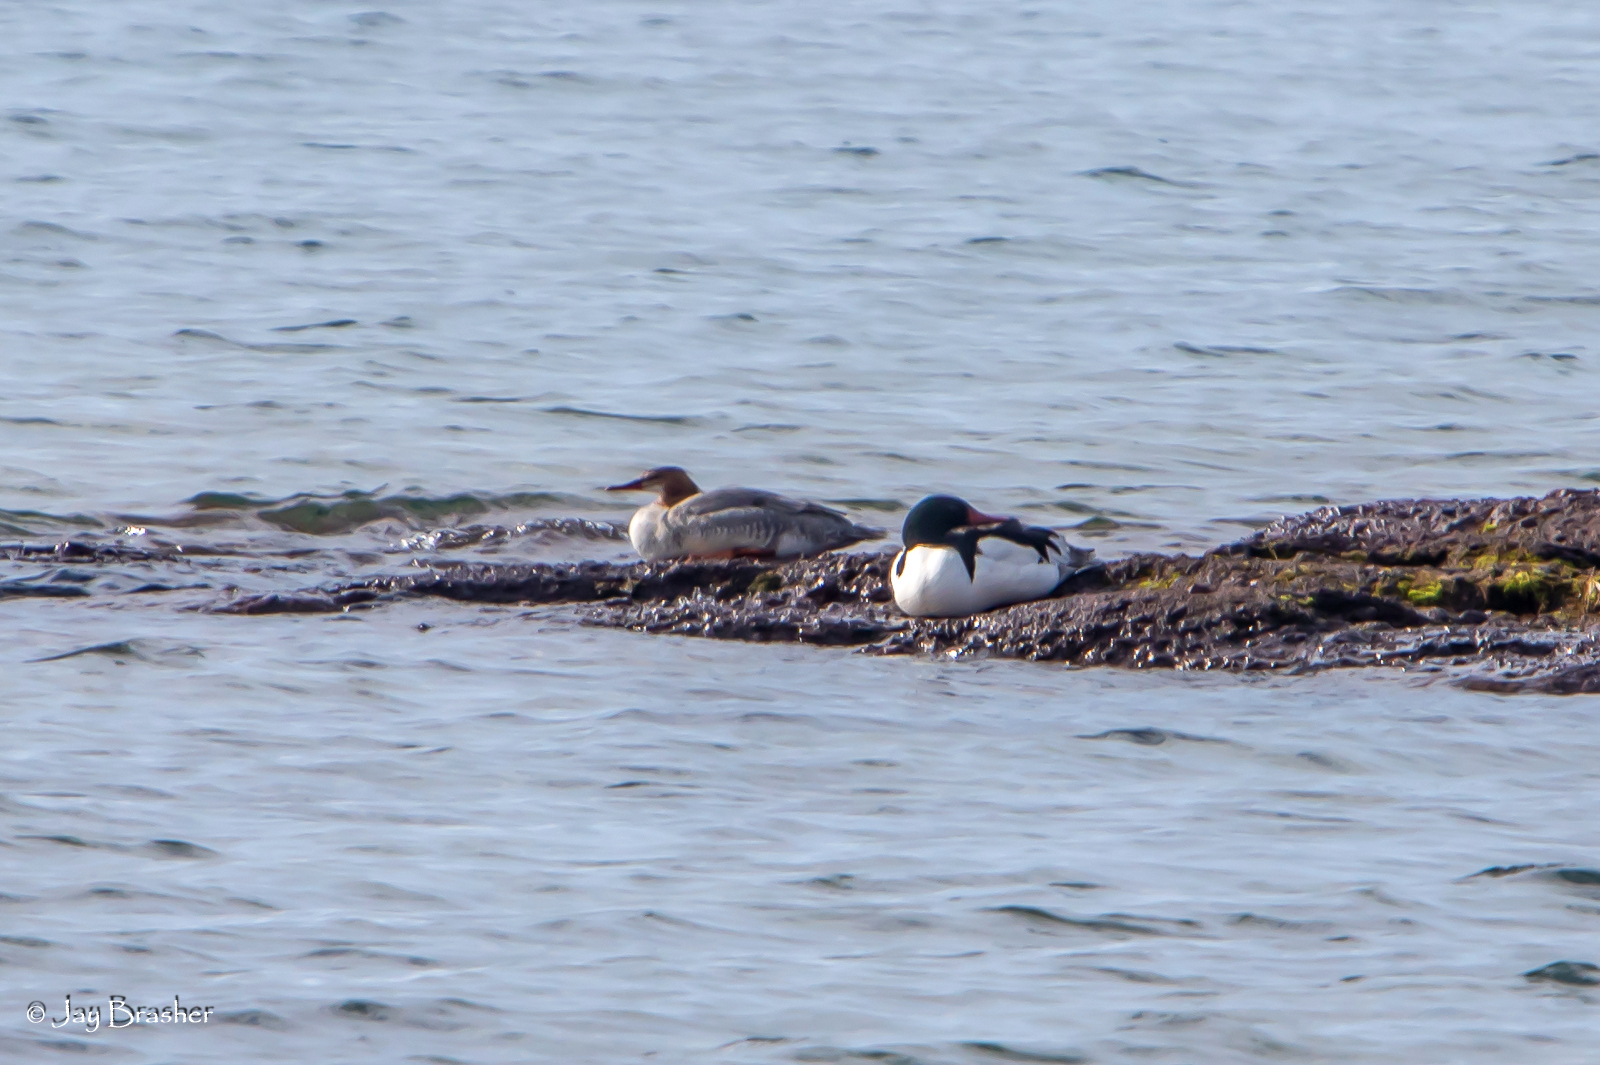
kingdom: Animalia
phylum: Chordata
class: Aves
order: Anseriformes
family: Anatidae
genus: Mergus
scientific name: Mergus merganser
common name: Common merganser
